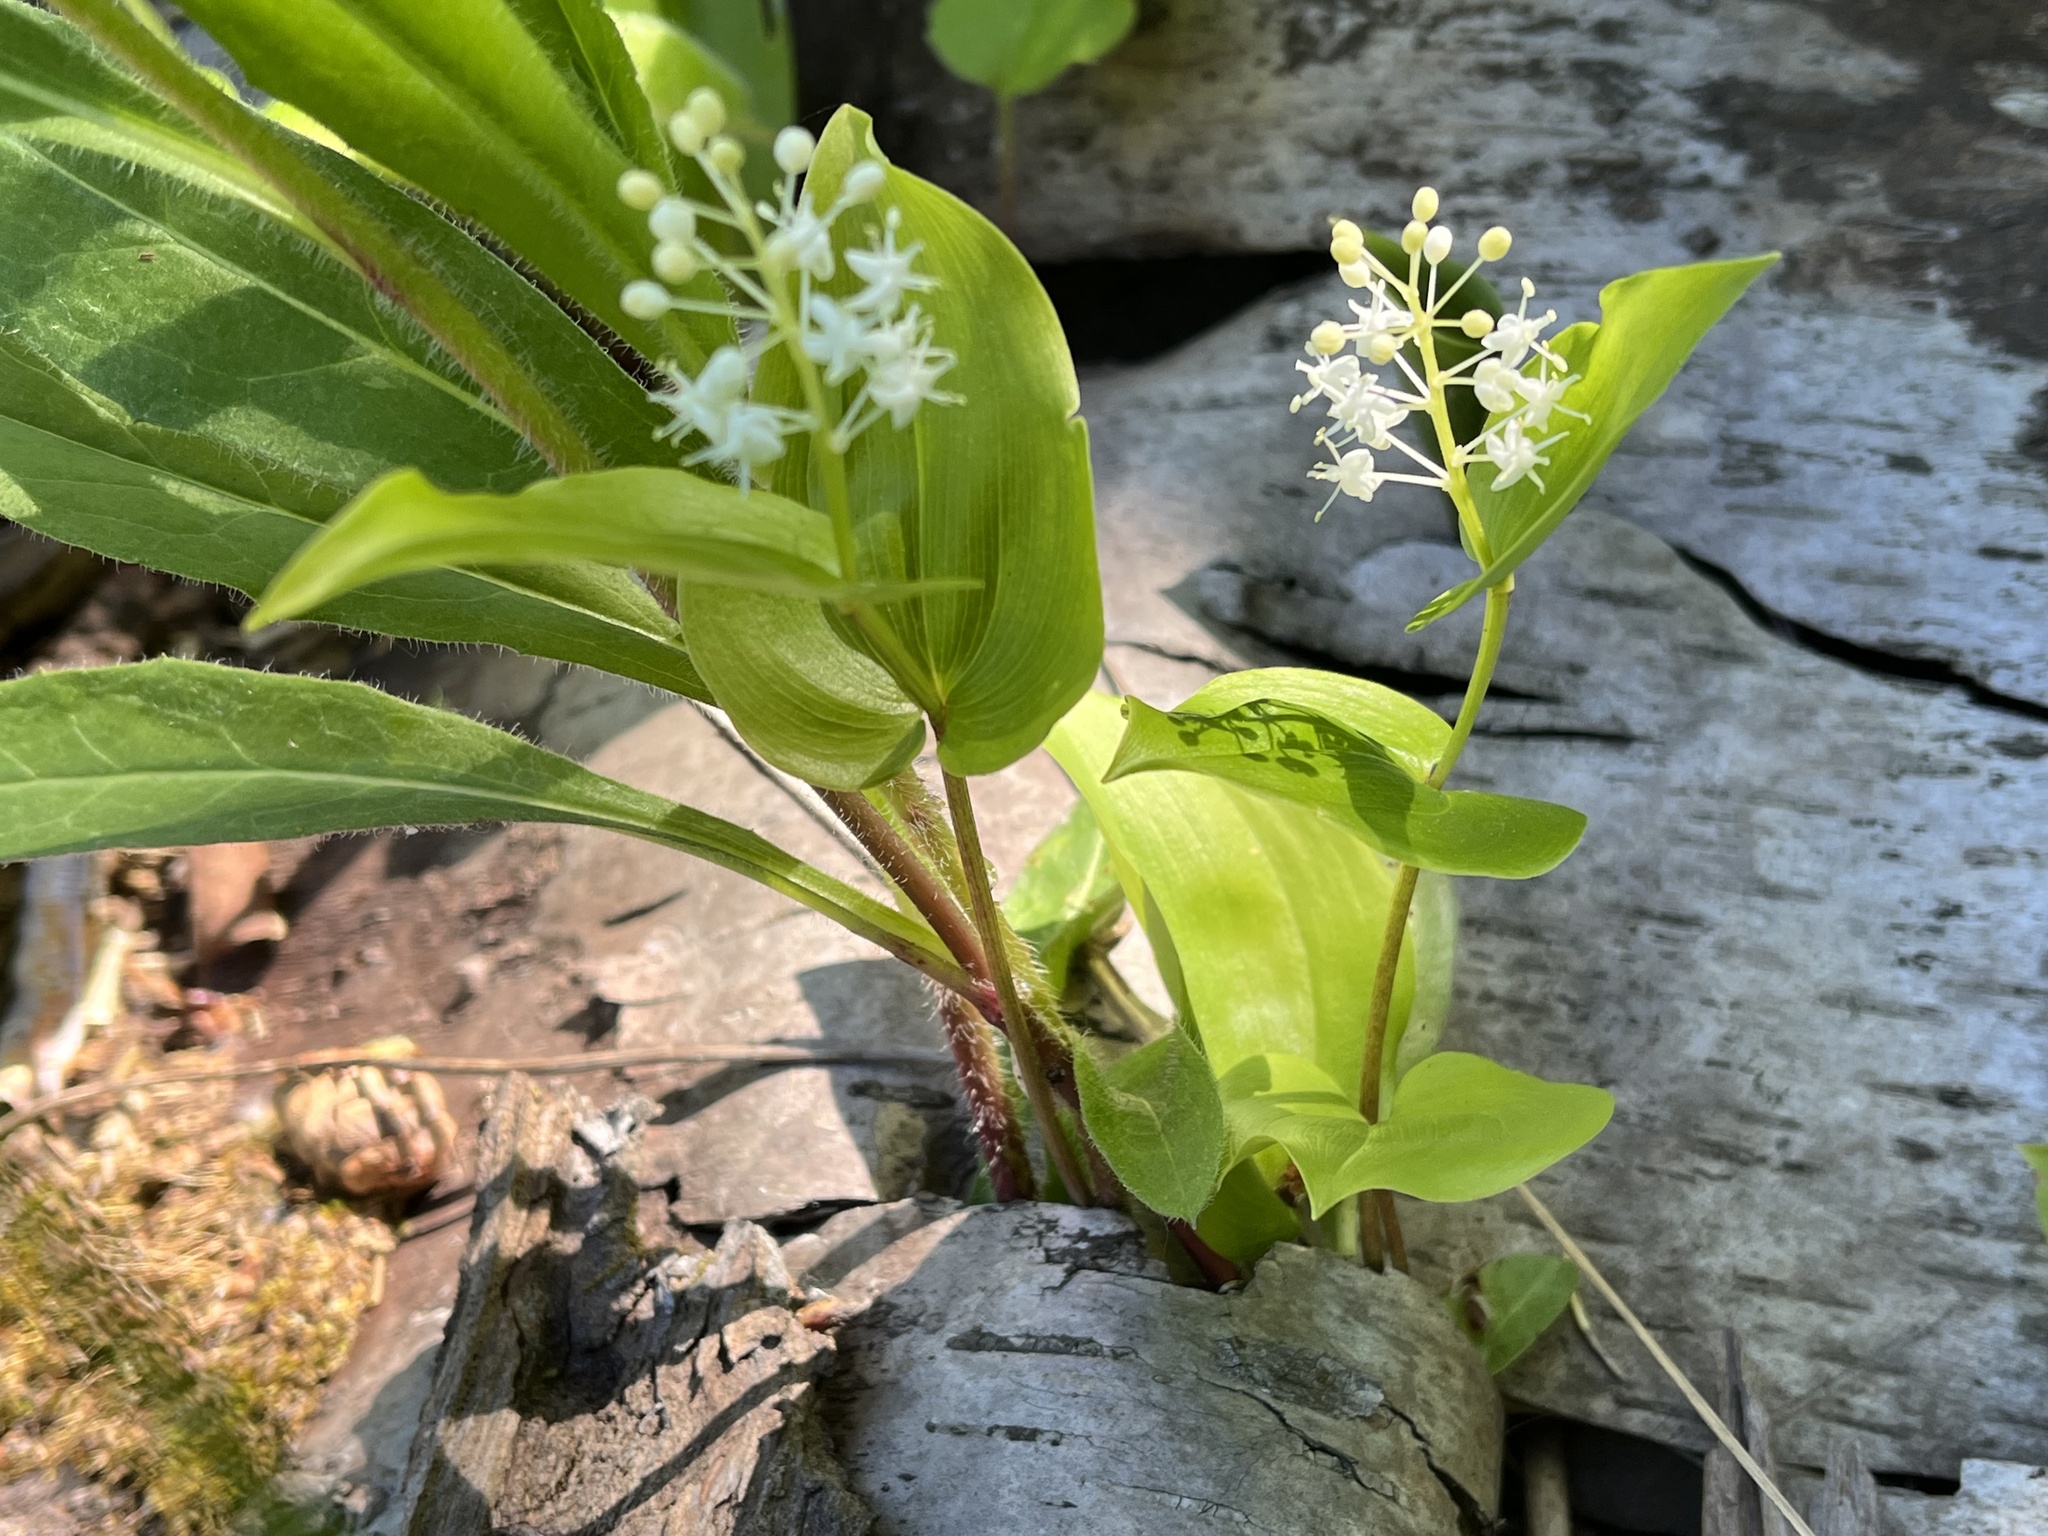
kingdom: Plantae
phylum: Tracheophyta
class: Liliopsida
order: Asparagales
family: Asparagaceae
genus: Maianthemum
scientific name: Maianthemum canadense
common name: False lily-of-the-valley
